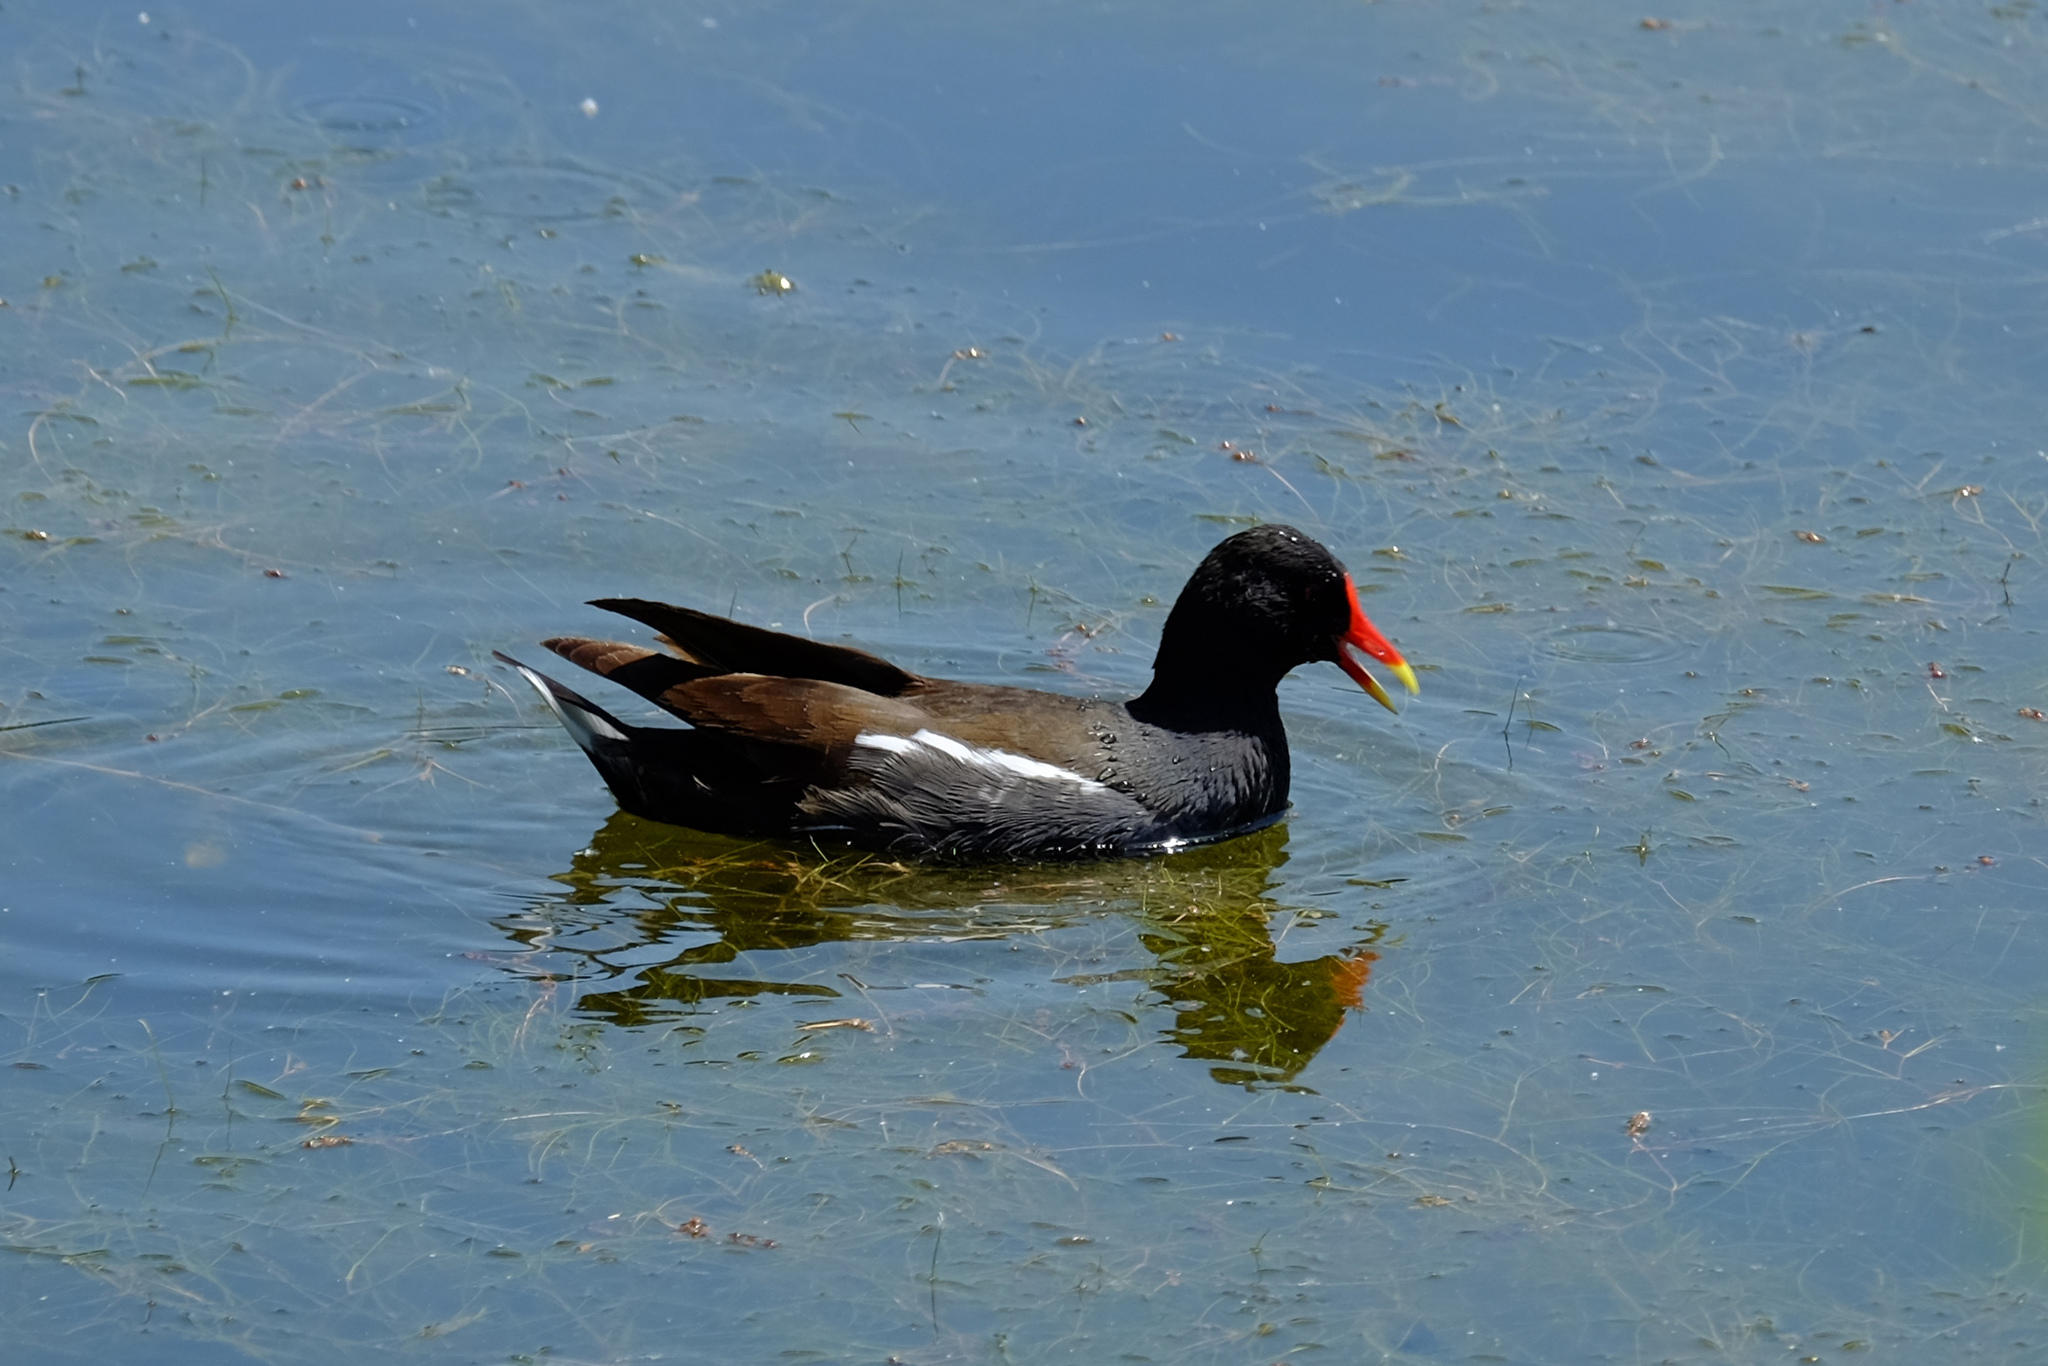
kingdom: Animalia
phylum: Chordata
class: Aves
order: Gruiformes
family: Rallidae
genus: Gallinula
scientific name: Gallinula chloropus
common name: Common moorhen
